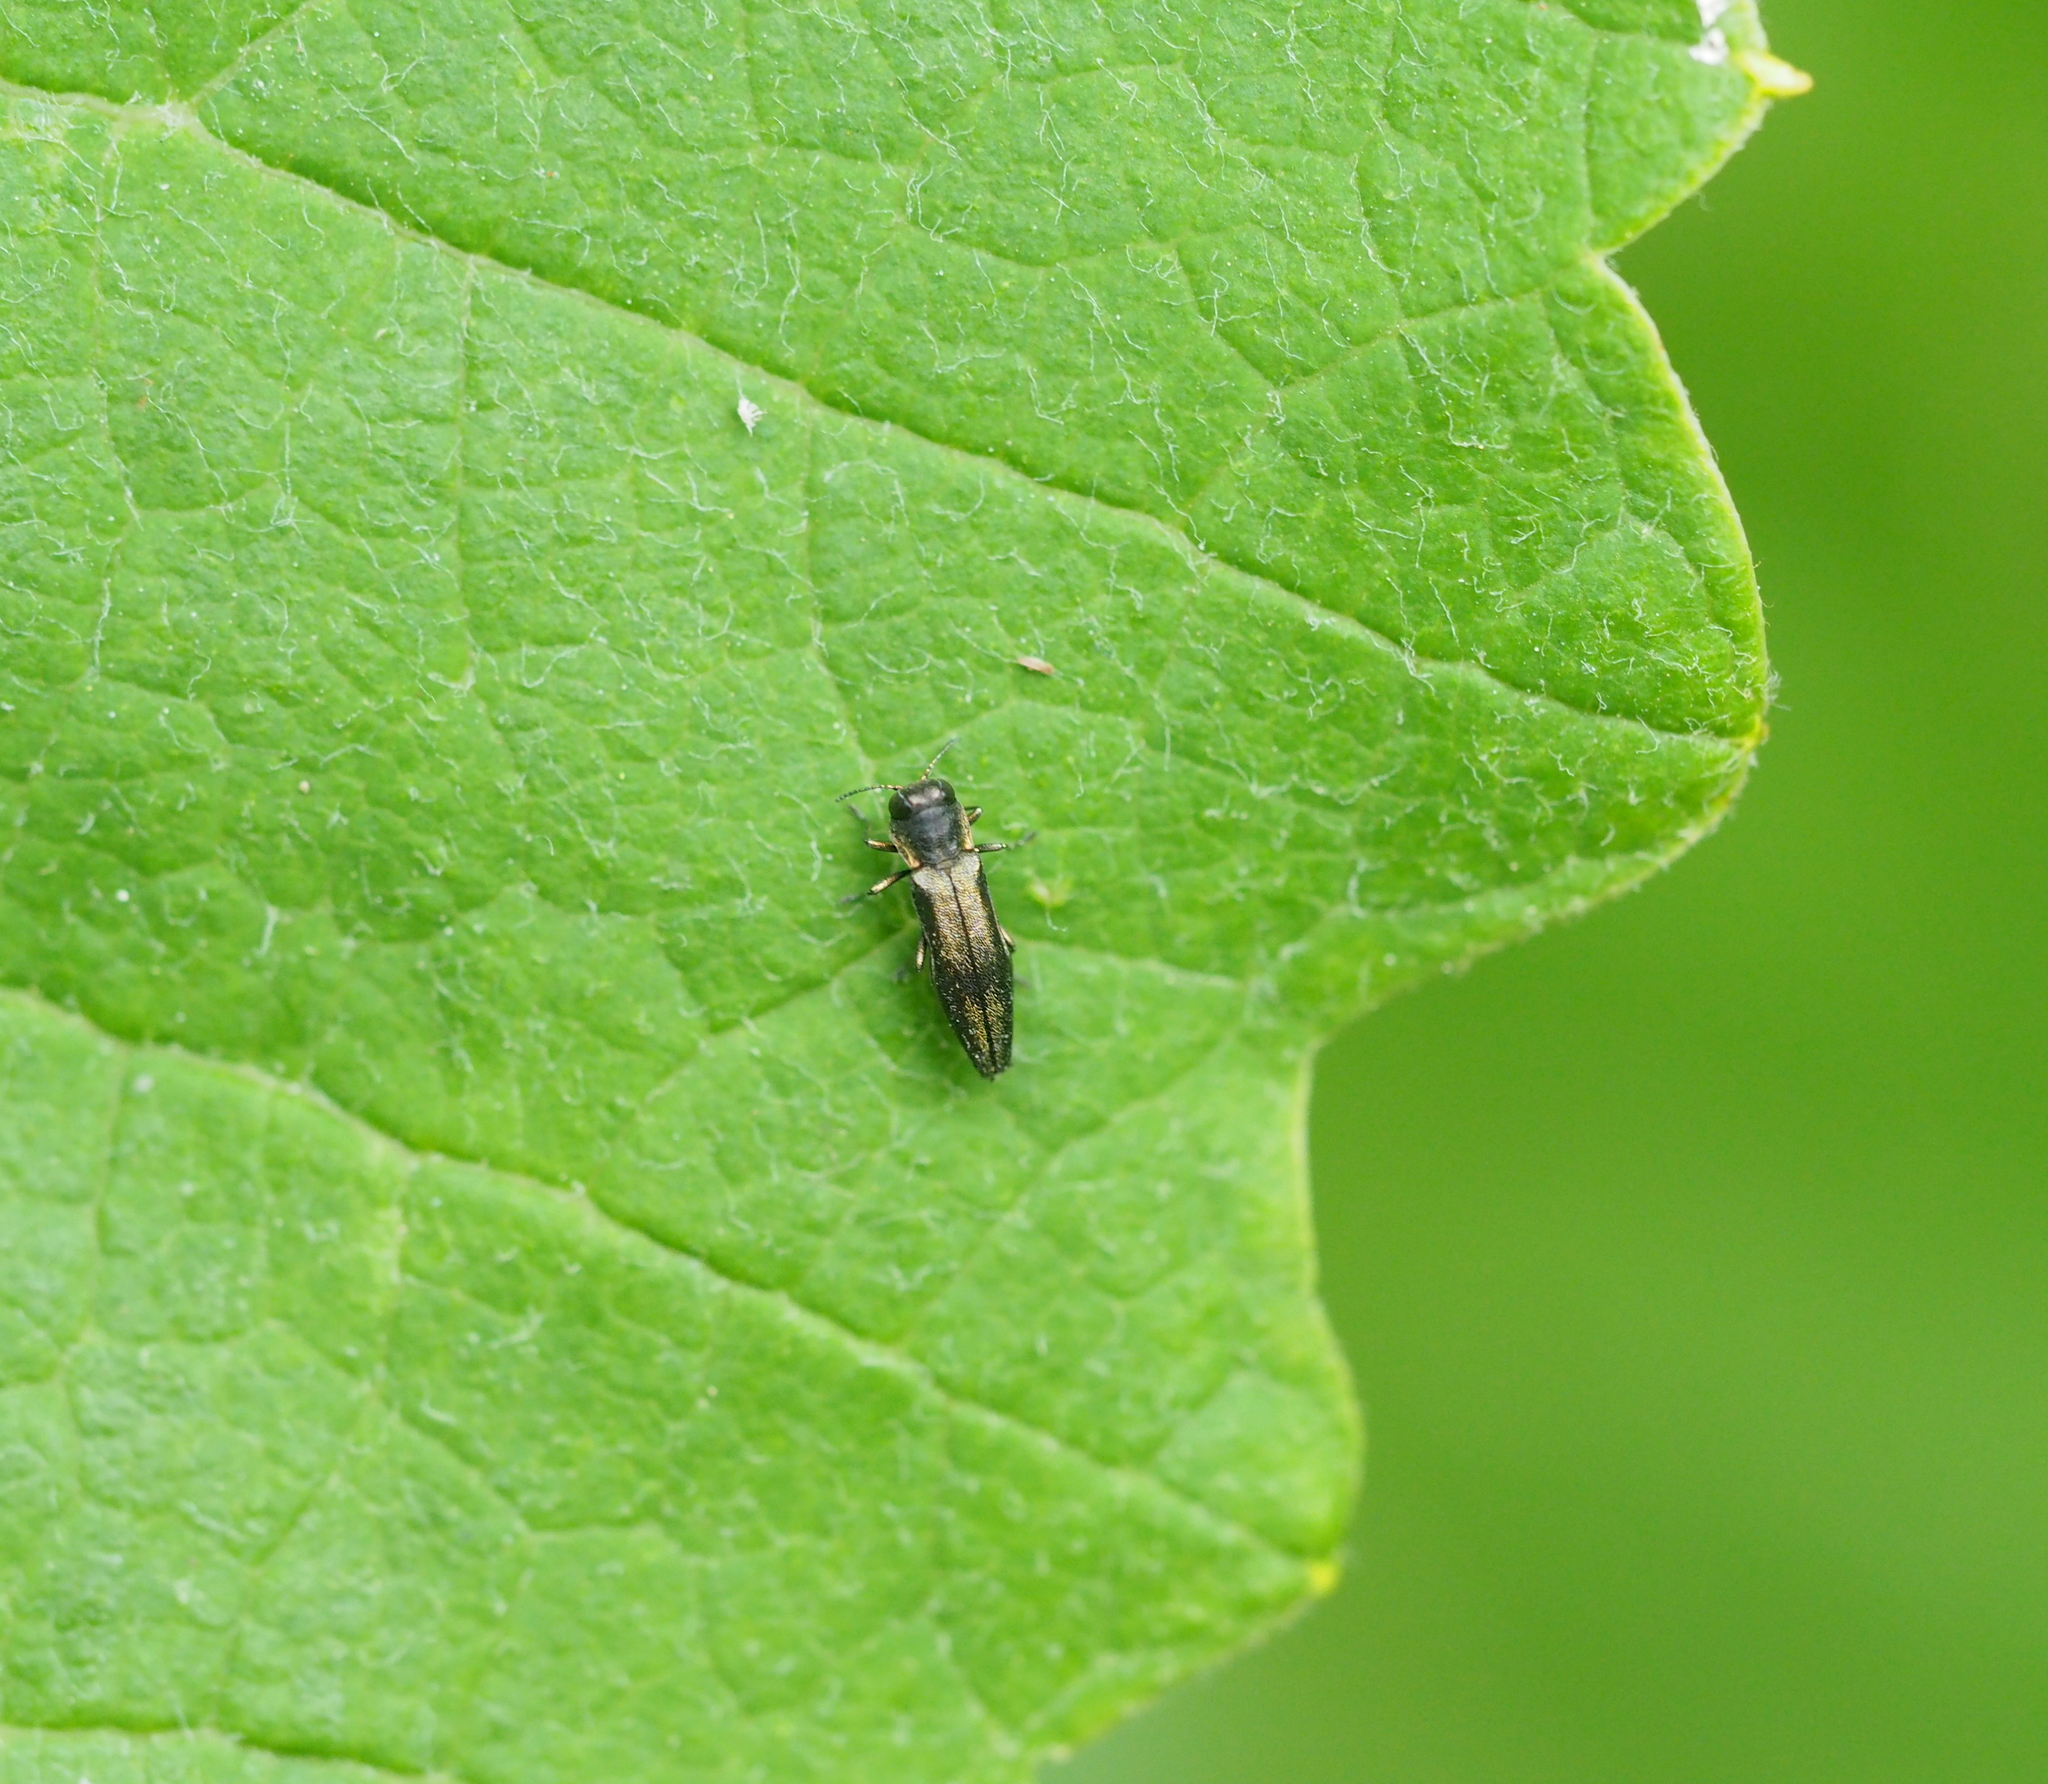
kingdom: Animalia
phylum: Arthropoda
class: Insecta
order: Coleoptera
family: Buprestidae
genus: Agrilus
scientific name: Agrilus derasofasciatus
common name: Metallic wood-boring beetle
